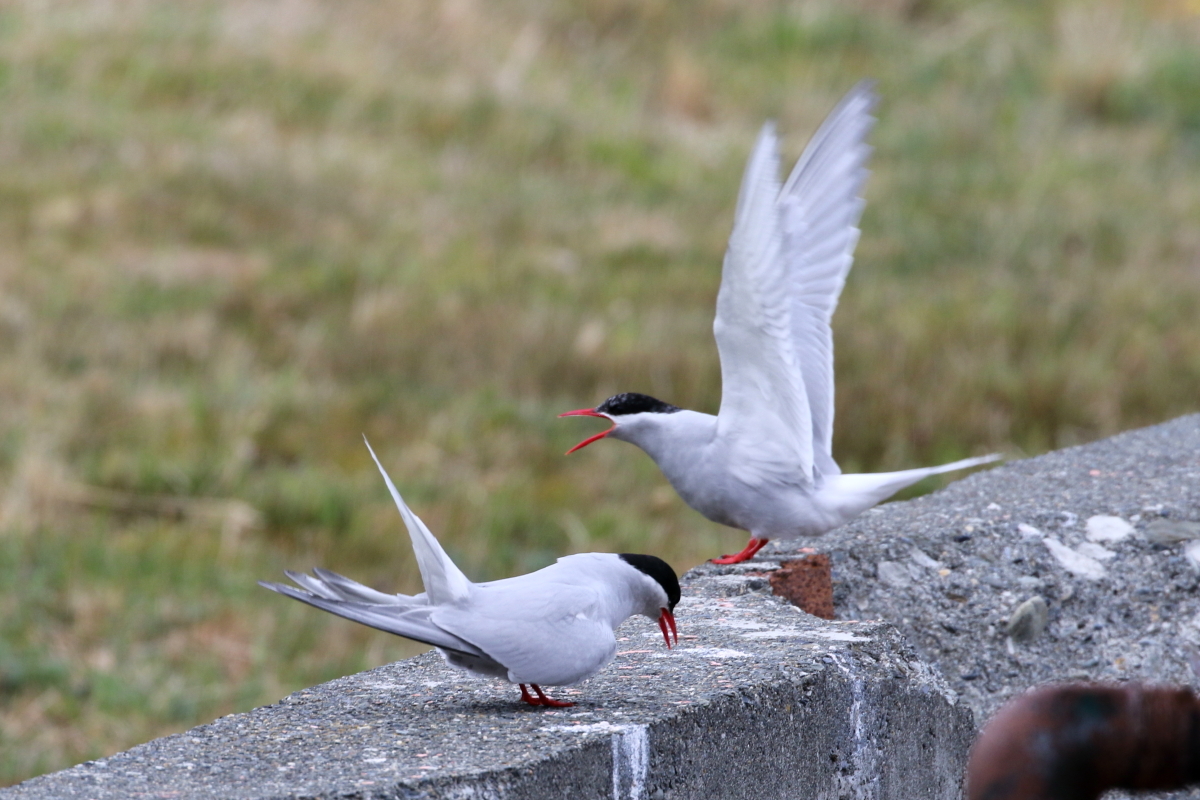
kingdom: Animalia
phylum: Chordata
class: Aves
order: Charadriiformes
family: Laridae
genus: Sterna
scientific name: Sterna vittata
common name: Antarctic tern
